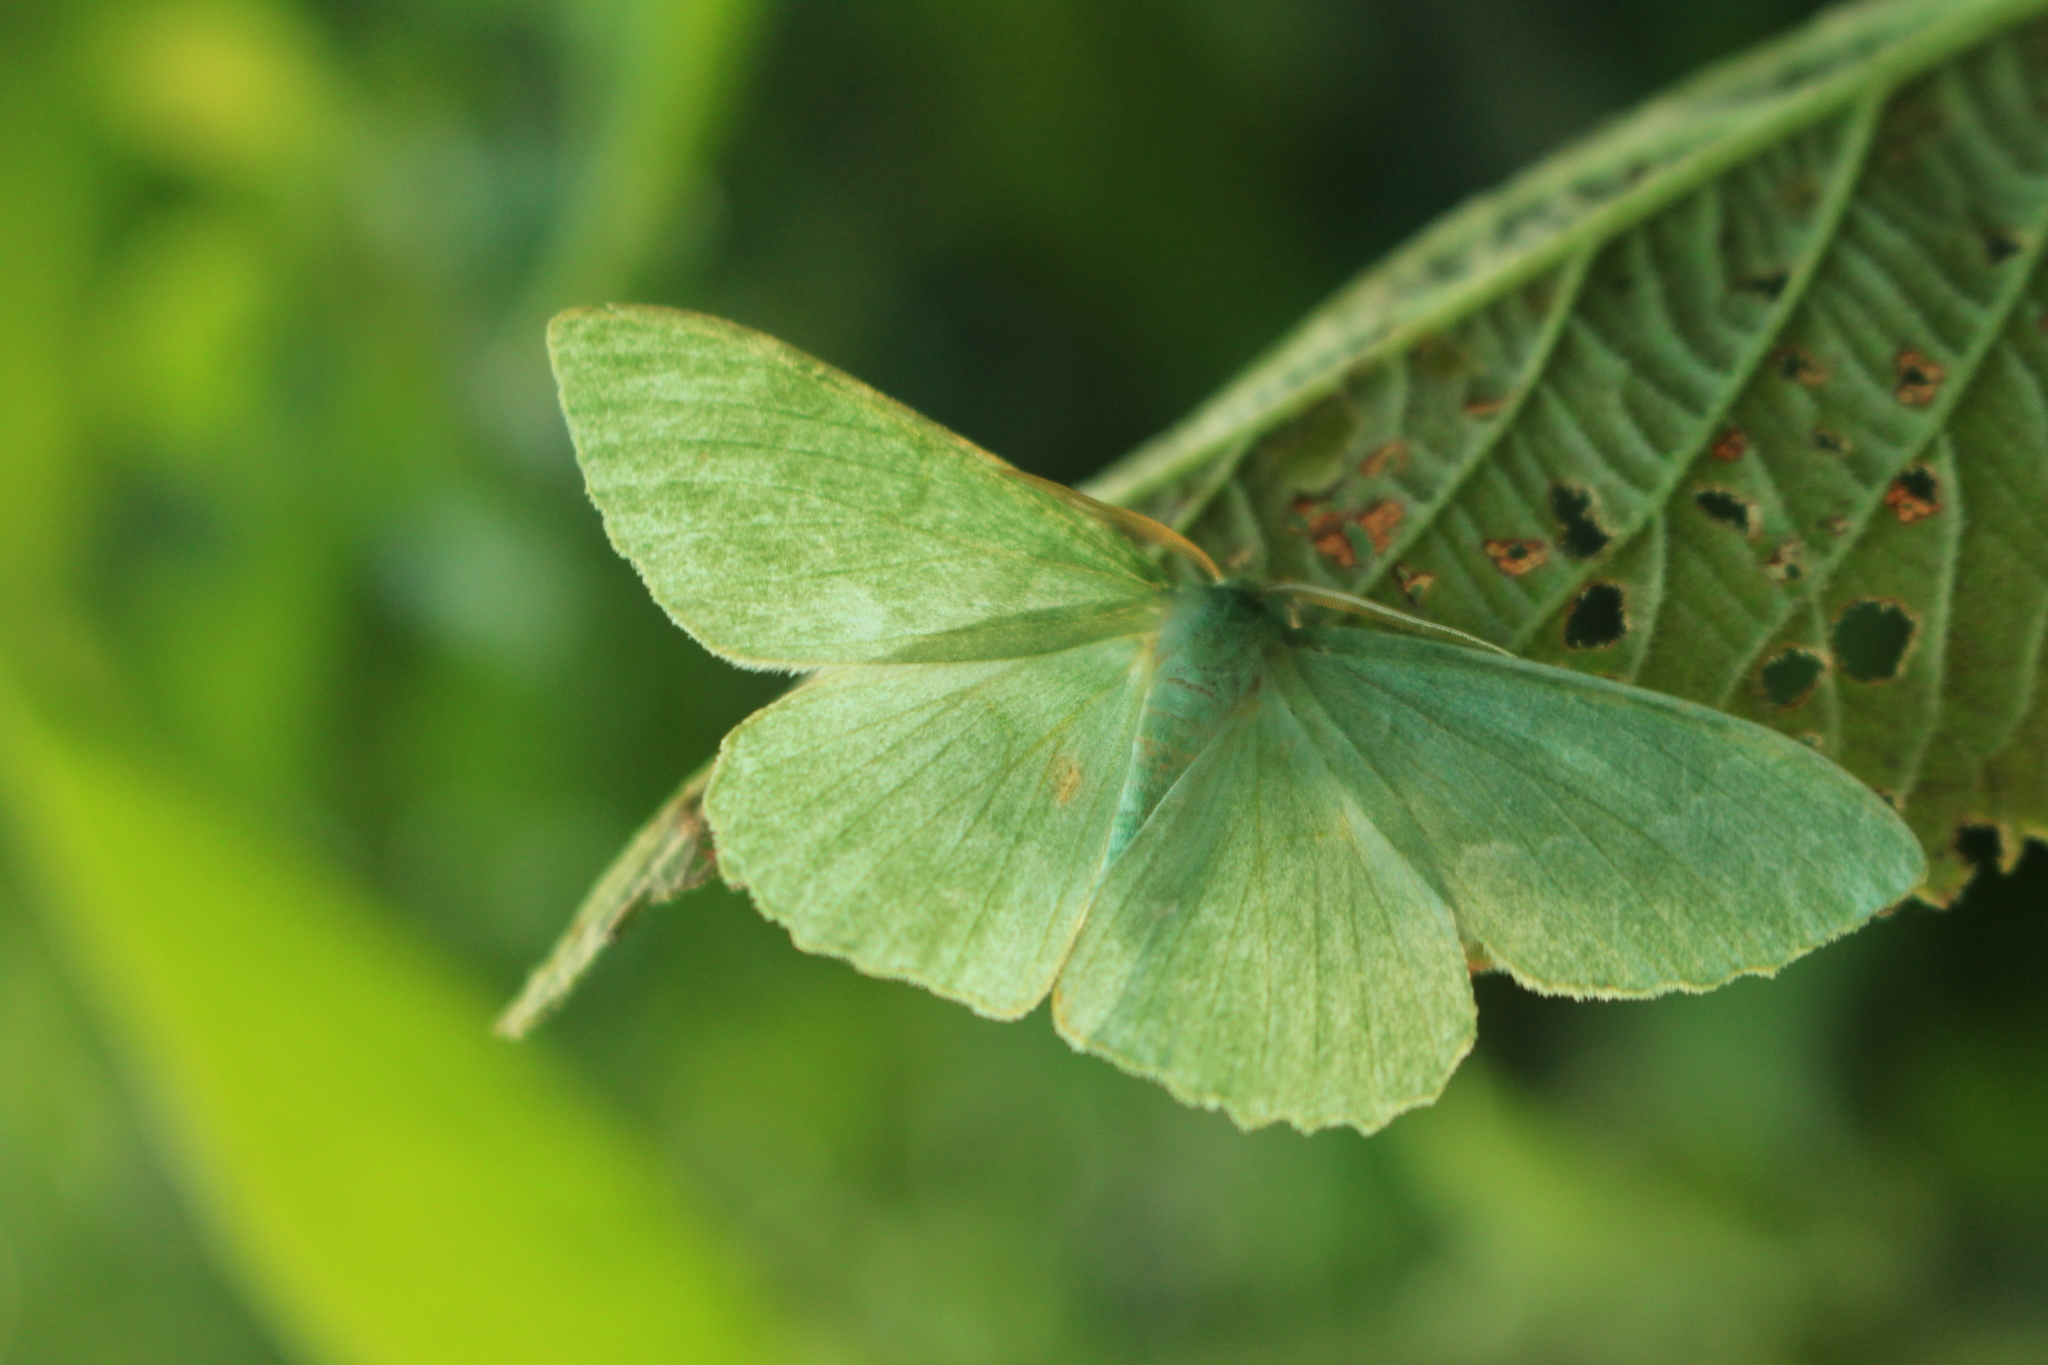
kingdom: Animalia
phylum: Arthropoda
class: Insecta
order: Lepidoptera
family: Geometridae
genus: Geometra
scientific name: Geometra papilionaria
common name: Large emerald
